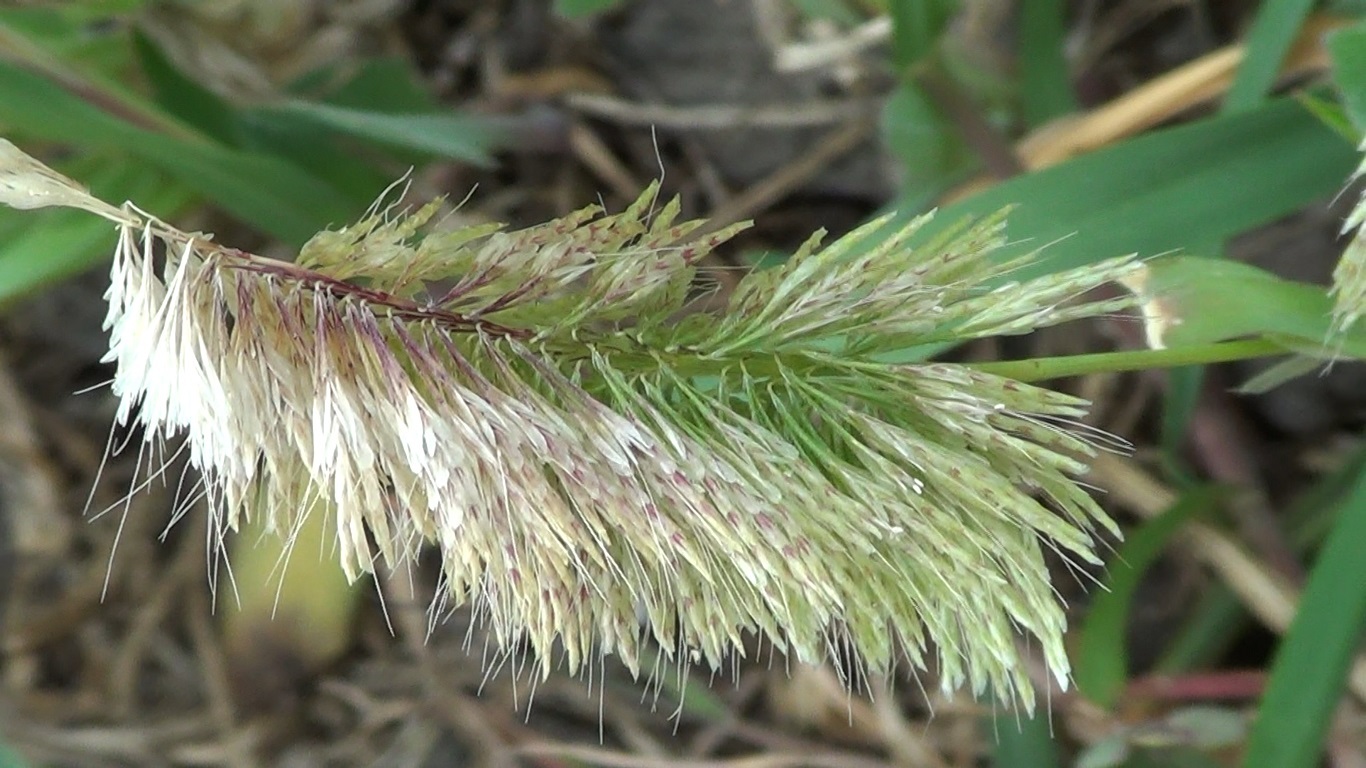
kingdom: Plantae
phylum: Tracheophyta
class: Liliopsida
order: Poales
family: Poaceae
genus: Lamarckia
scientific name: Lamarckia aurea
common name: Golden dog's-tail
